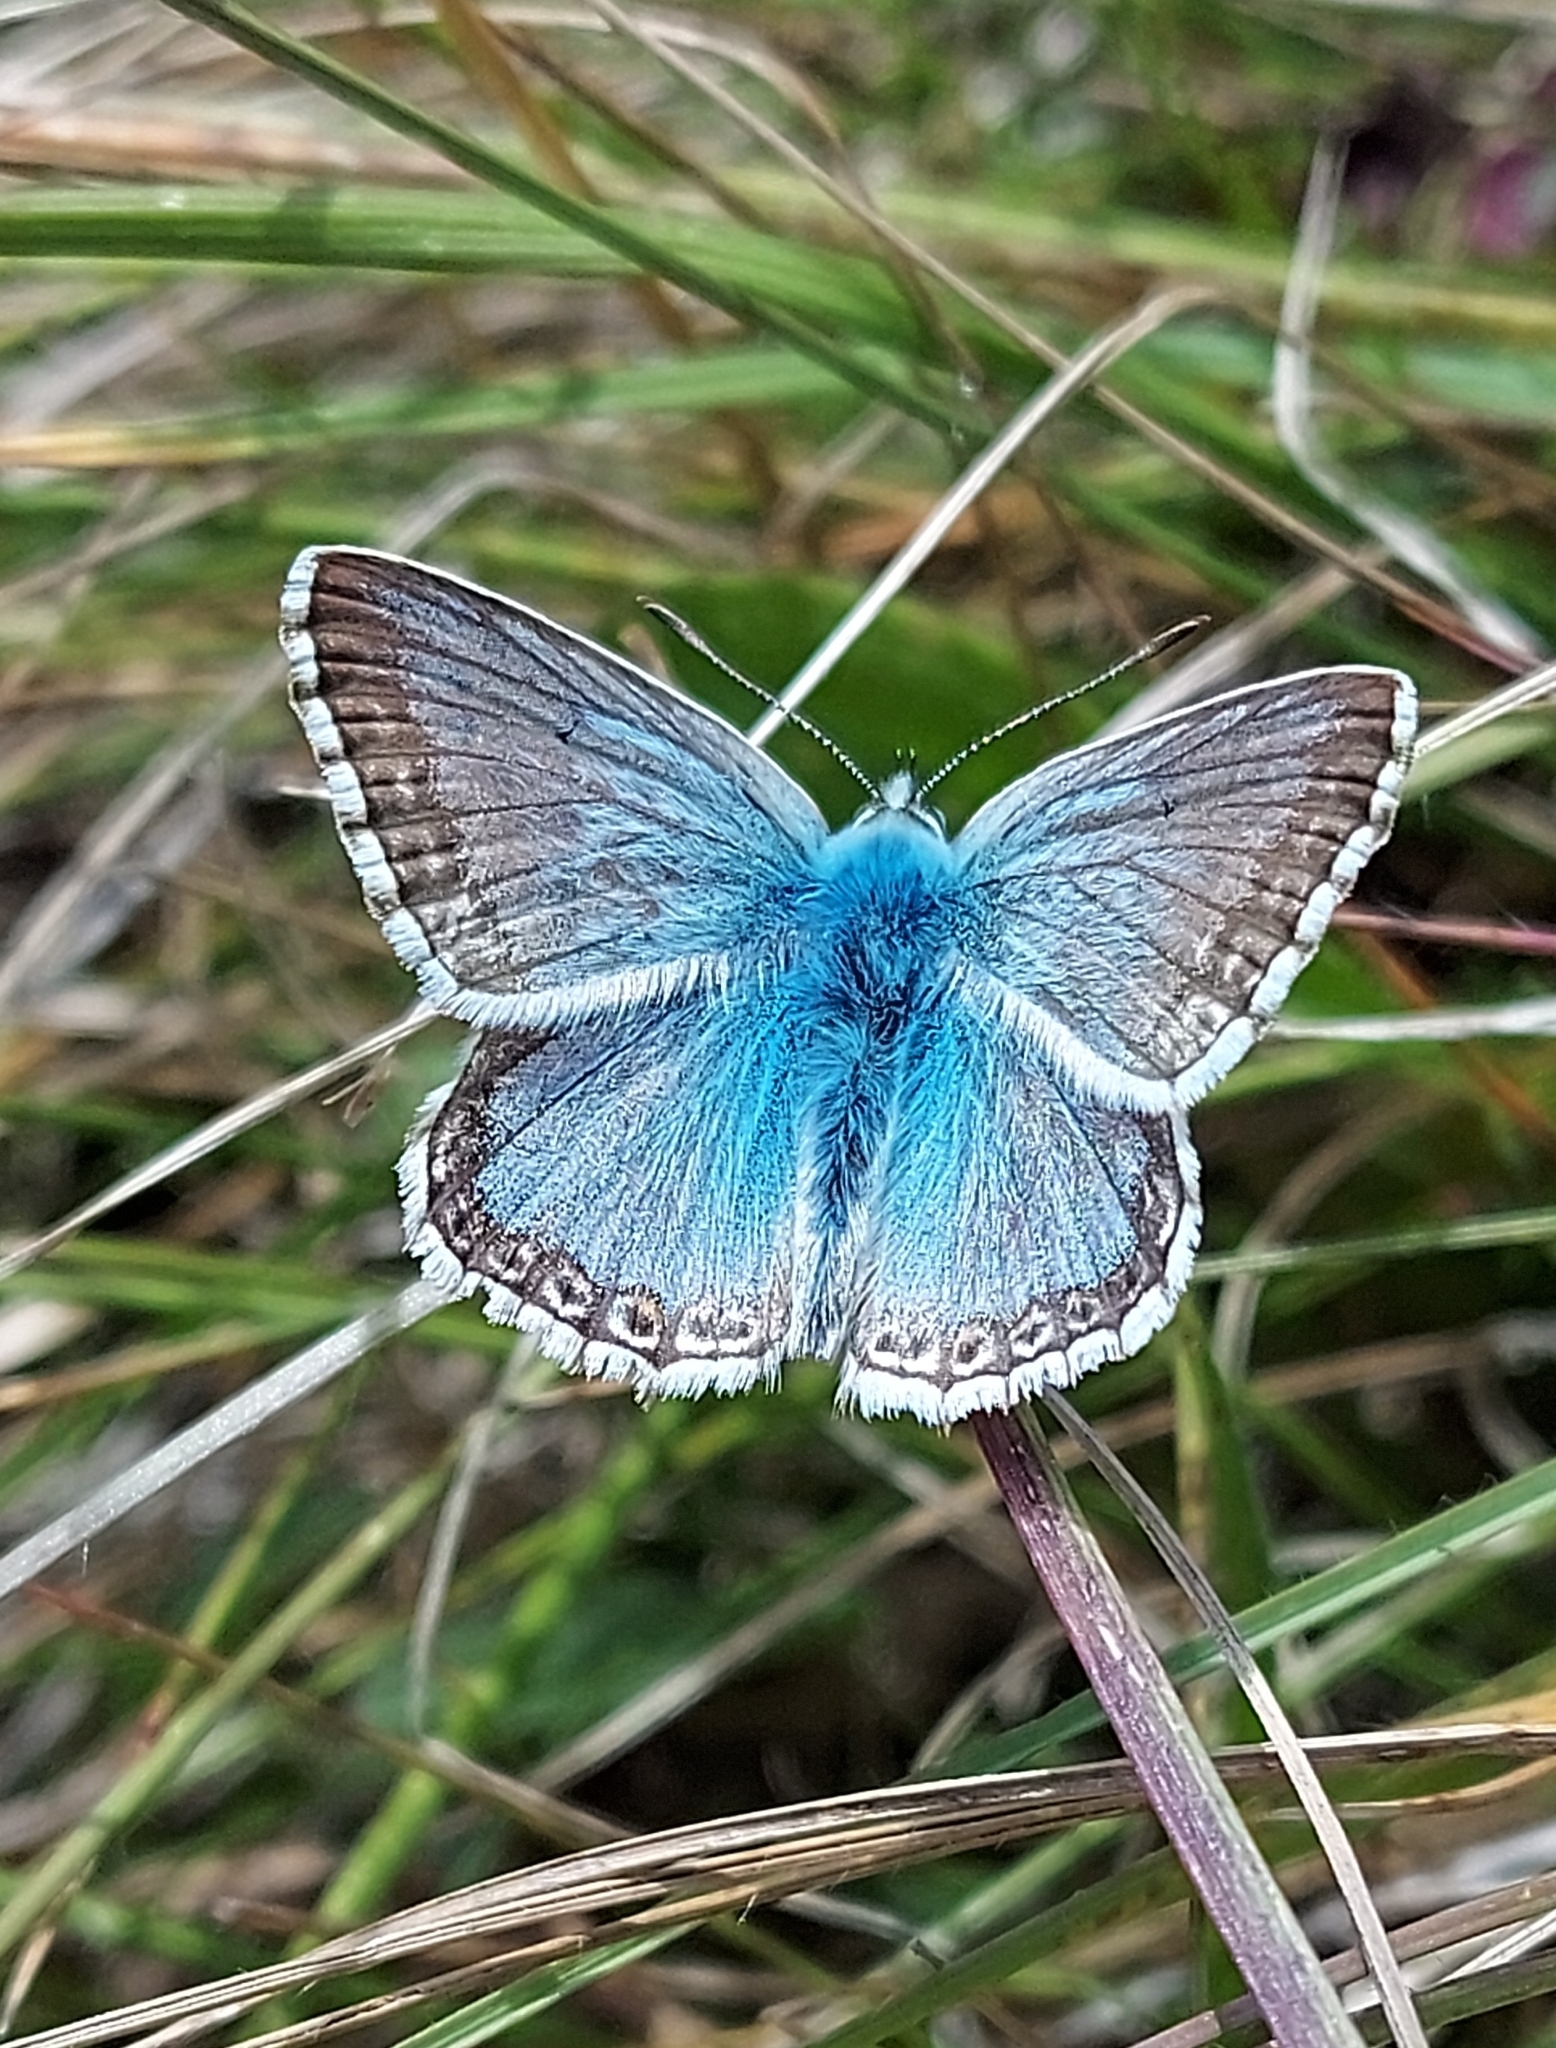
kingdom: Animalia
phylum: Arthropoda
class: Insecta
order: Lepidoptera
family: Lycaenidae
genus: Lysandra
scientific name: Lysandra coridon
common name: Chalkhill blue
